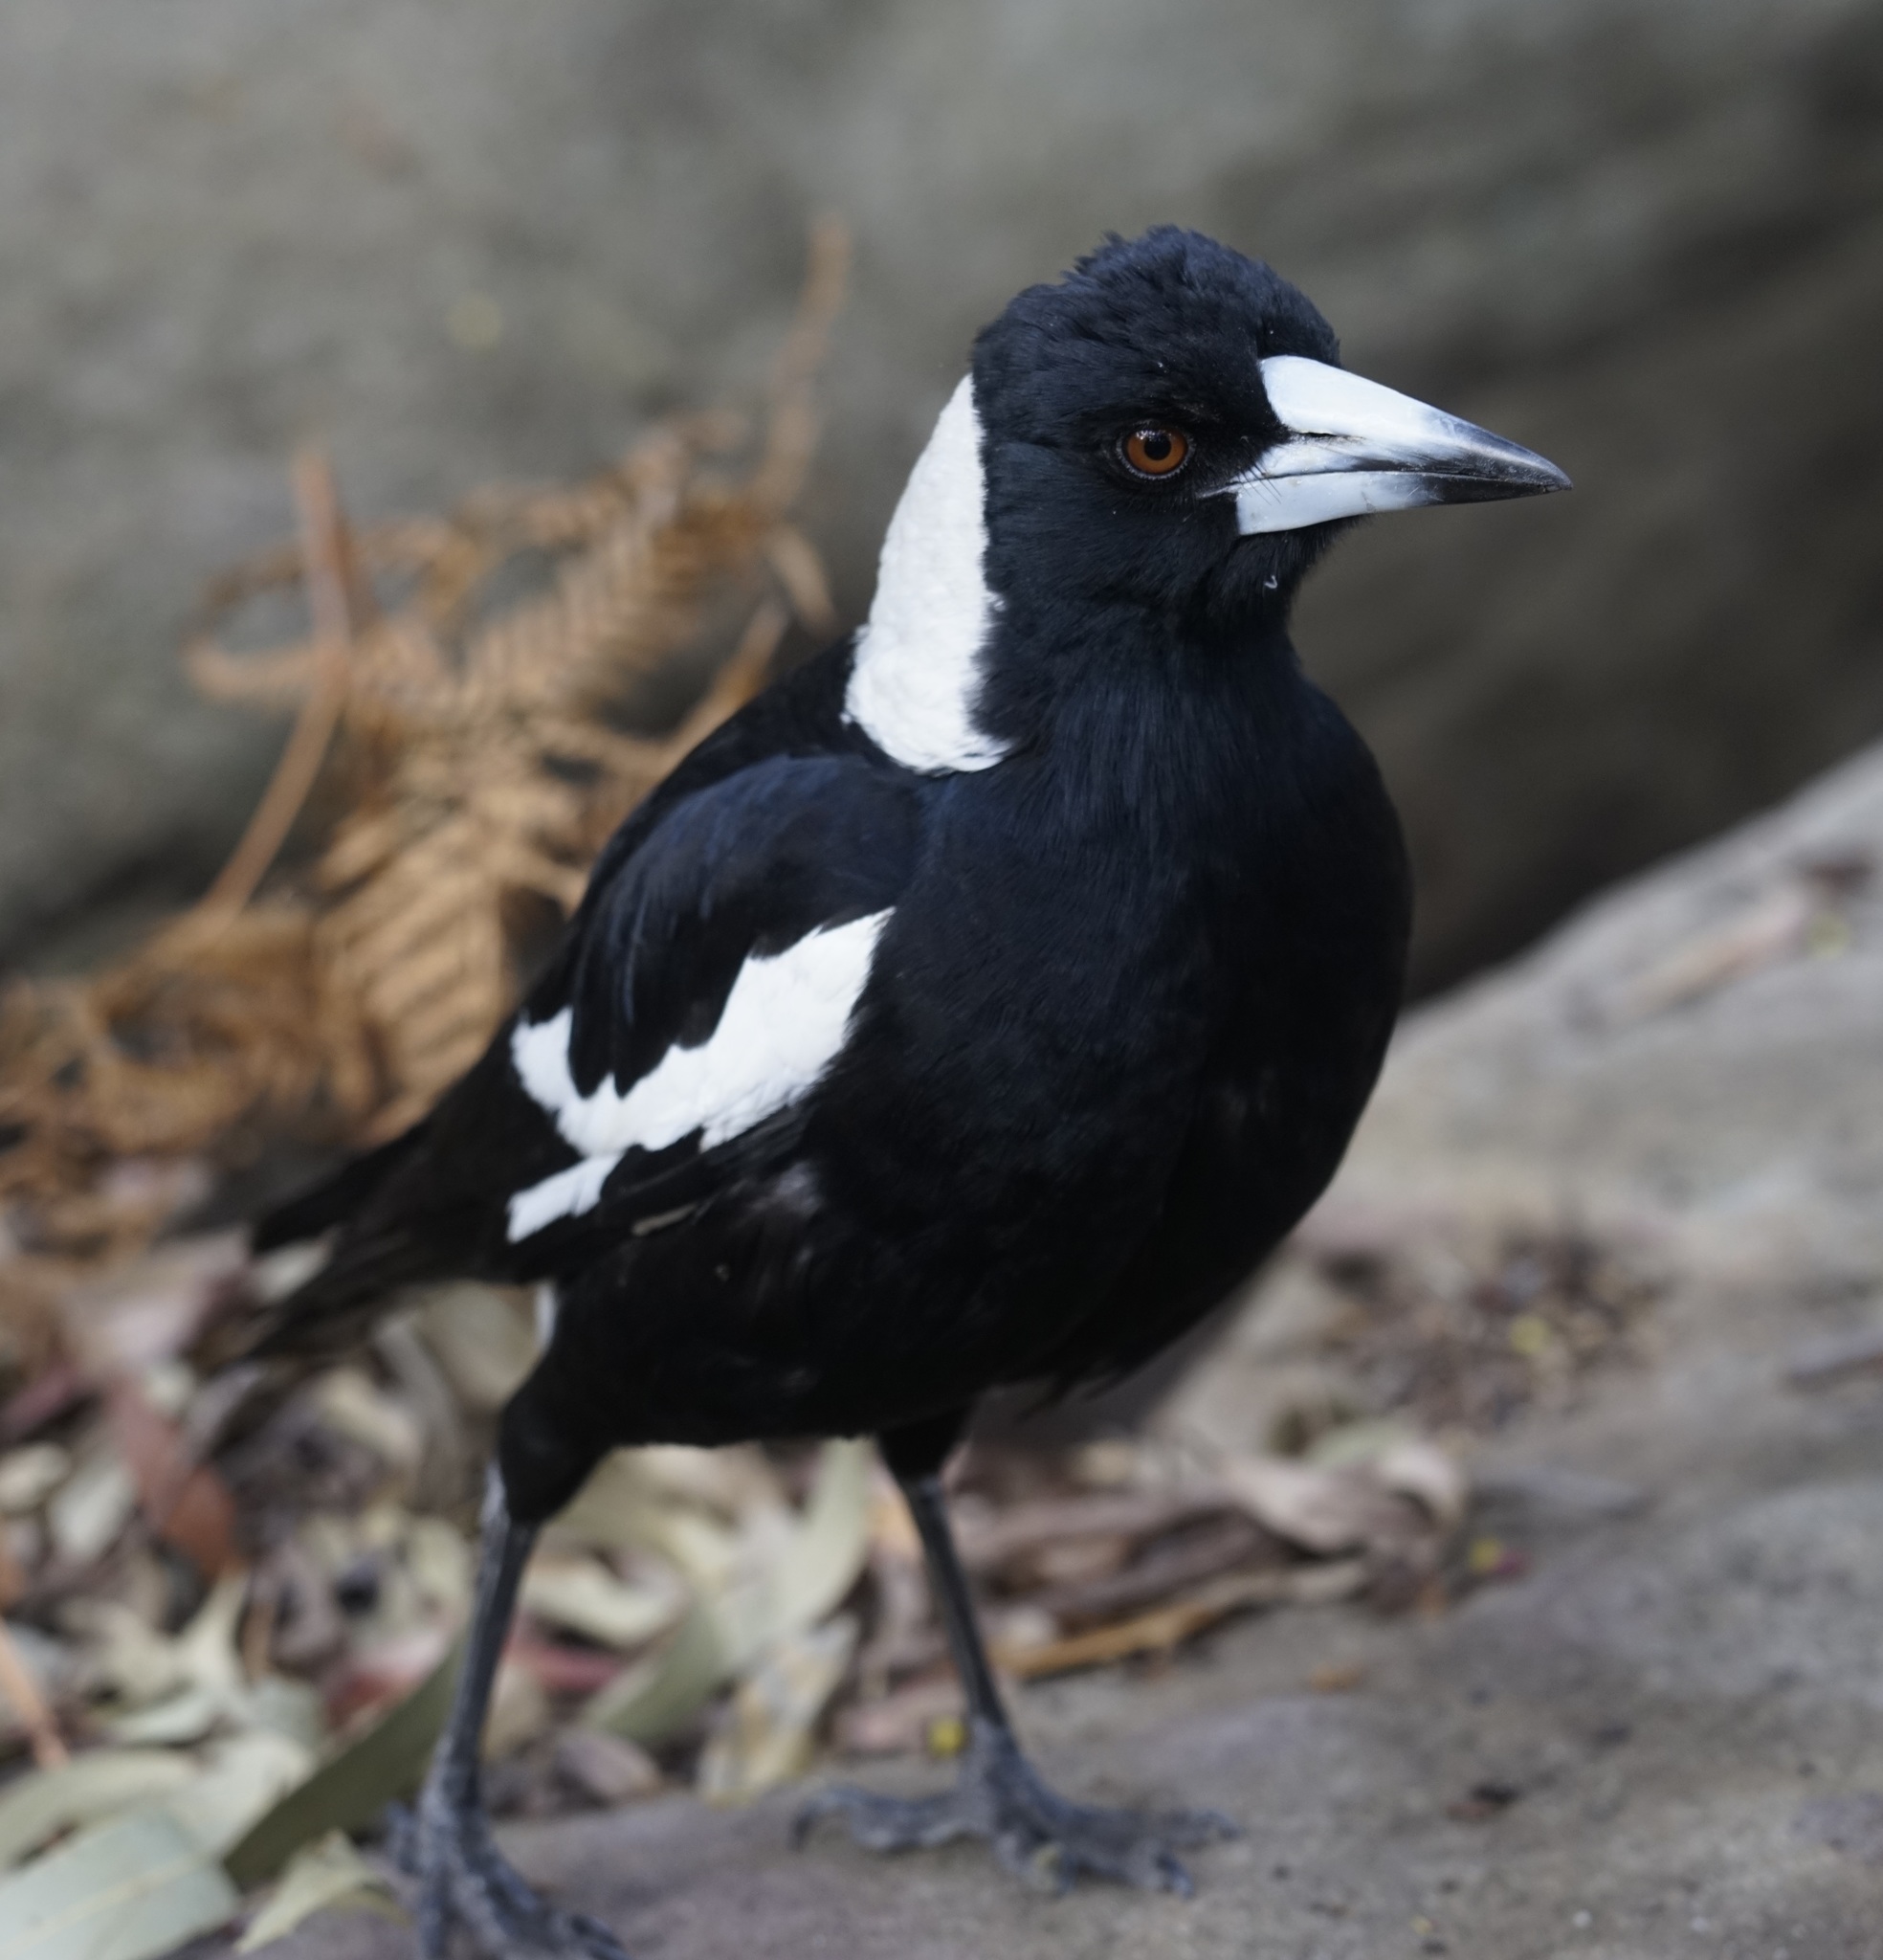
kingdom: Animalia
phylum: Chordata
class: Aves
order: Passeriformes
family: Cracticidae
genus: Gymnorhina
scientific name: Gymnorhina tibicen
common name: Australian magpie
